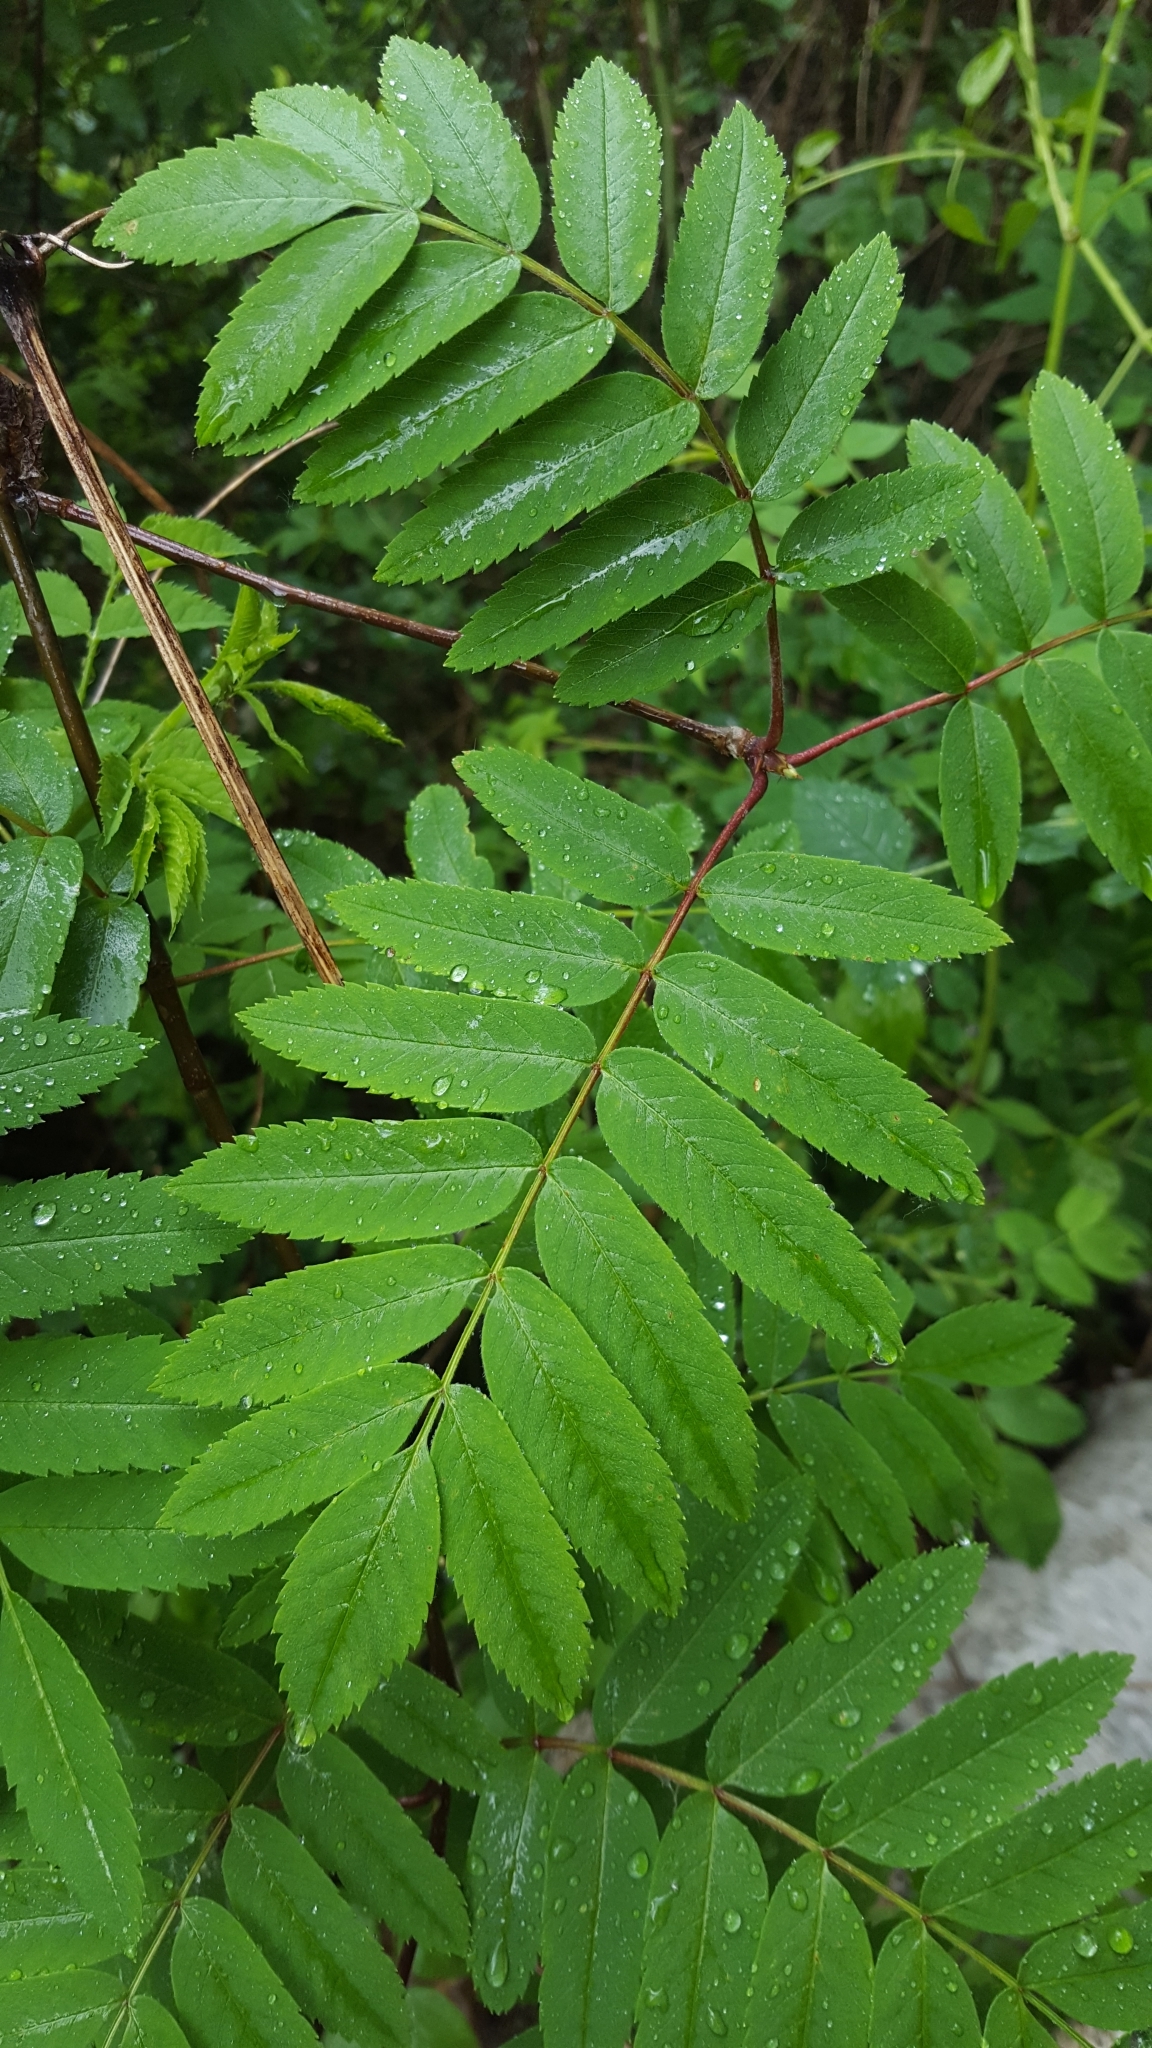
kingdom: Plantae
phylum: Tracheophyta
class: Magnoliopsida
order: Rosales
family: Rosaceae
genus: Sorbus
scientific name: Sorbus aucuparia
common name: Rowan
